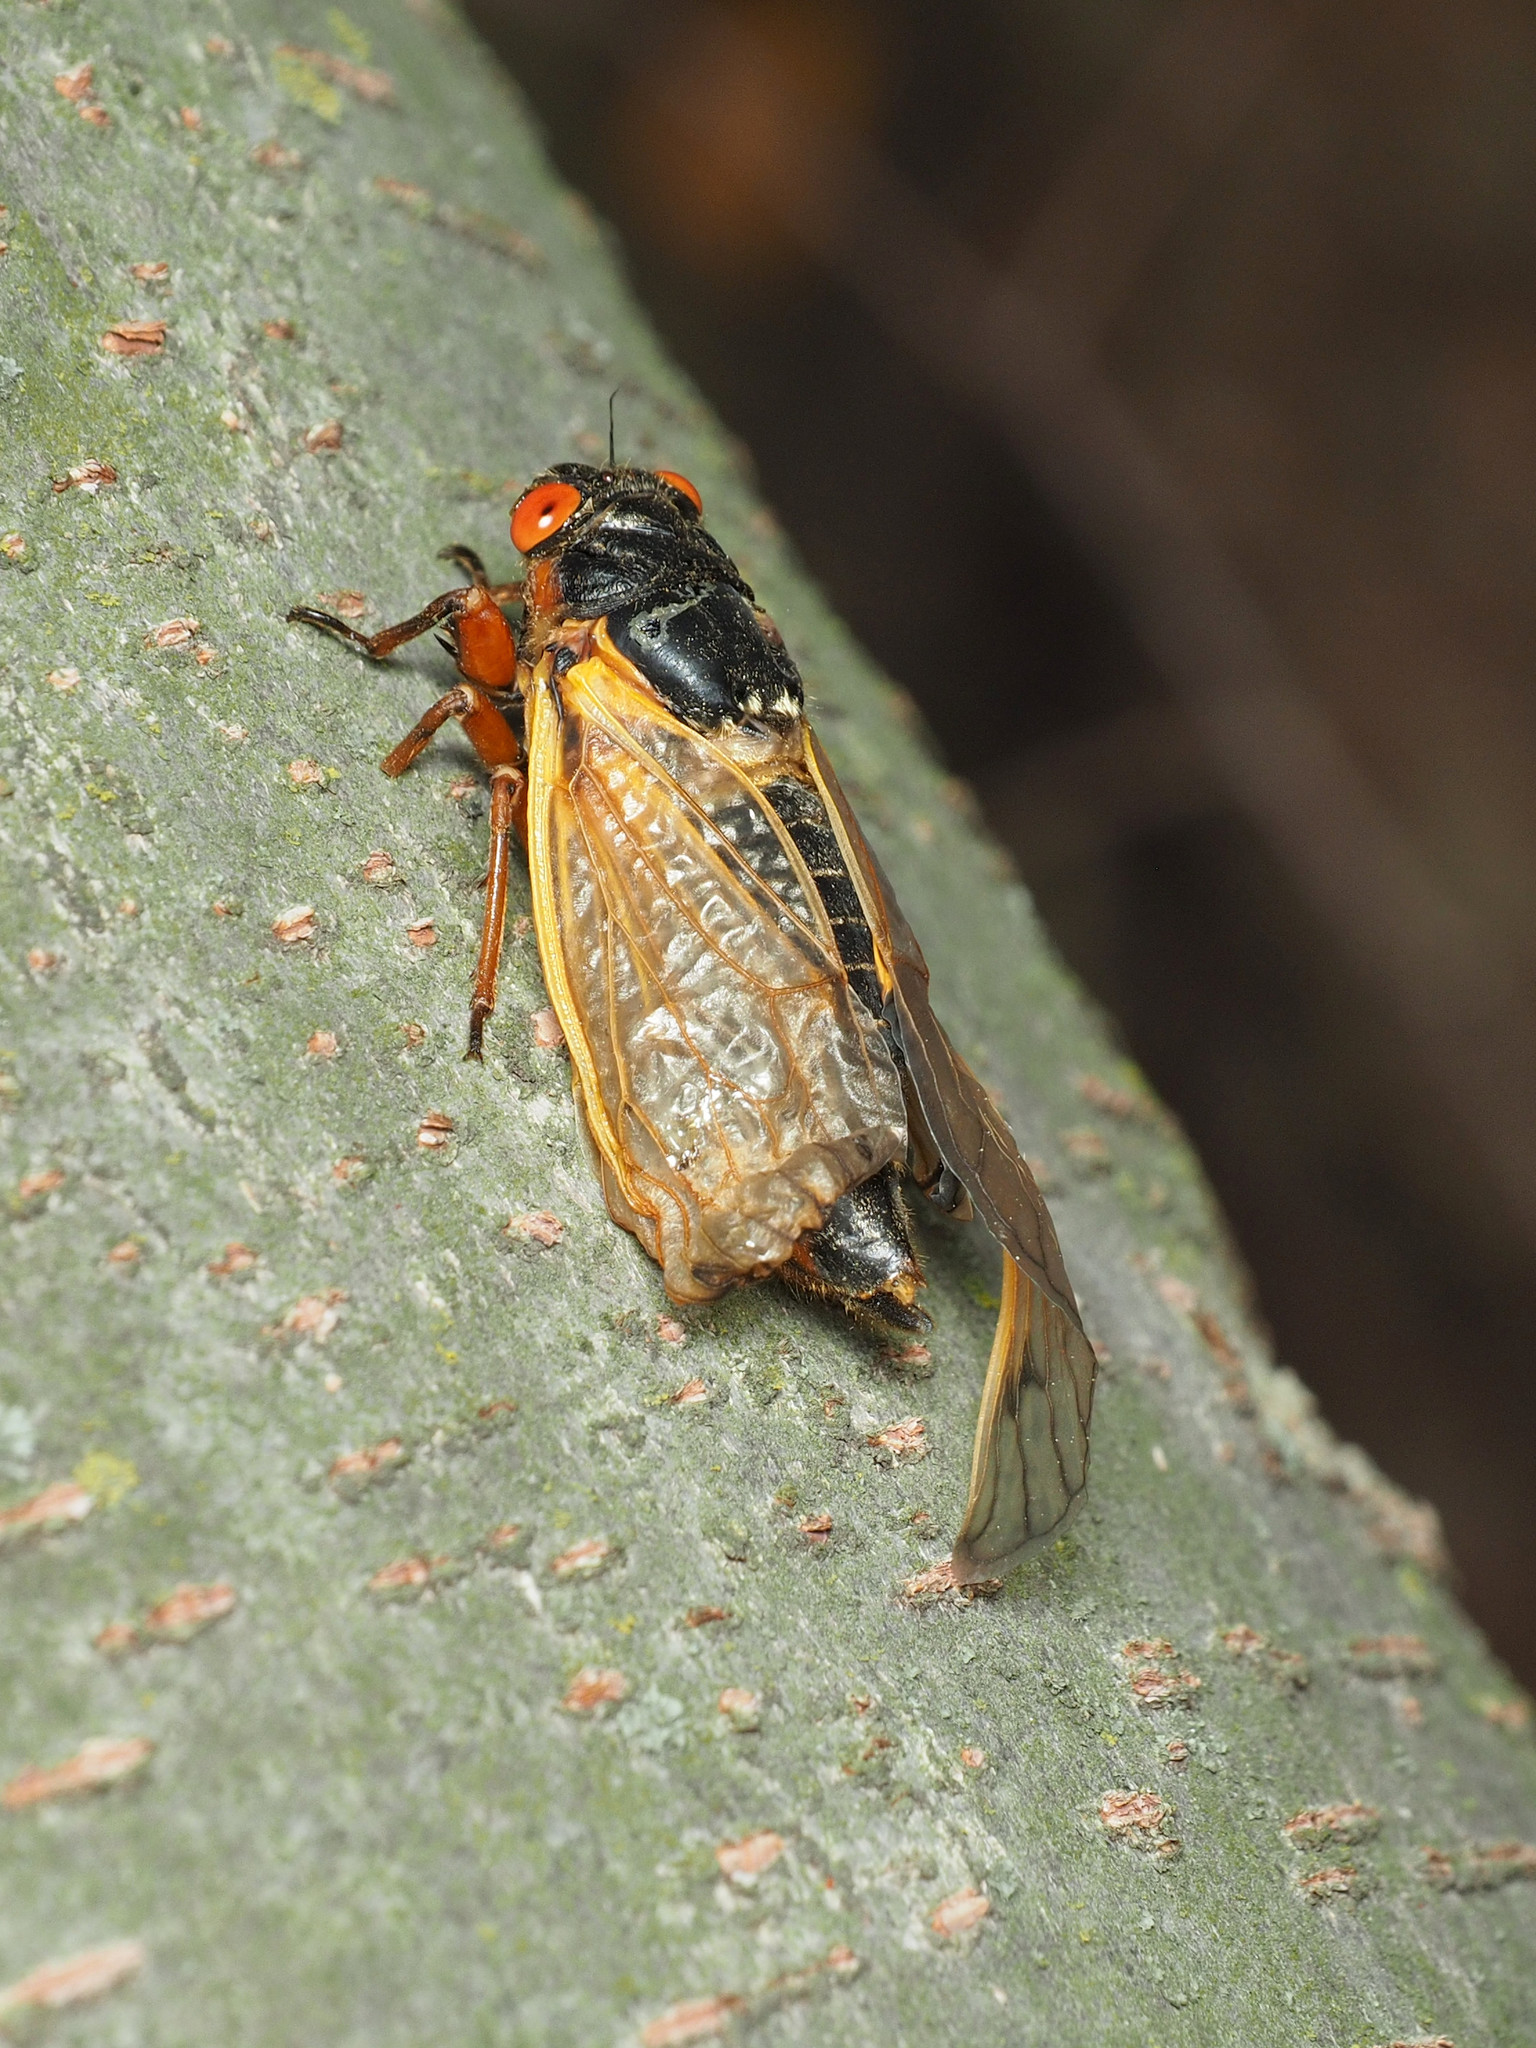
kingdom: Animalia
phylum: Arthropoda
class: Insecta
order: Hemiptera
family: Cicadidae
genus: Magicicada
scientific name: Magicicada septendecim
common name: Periodical cicada
